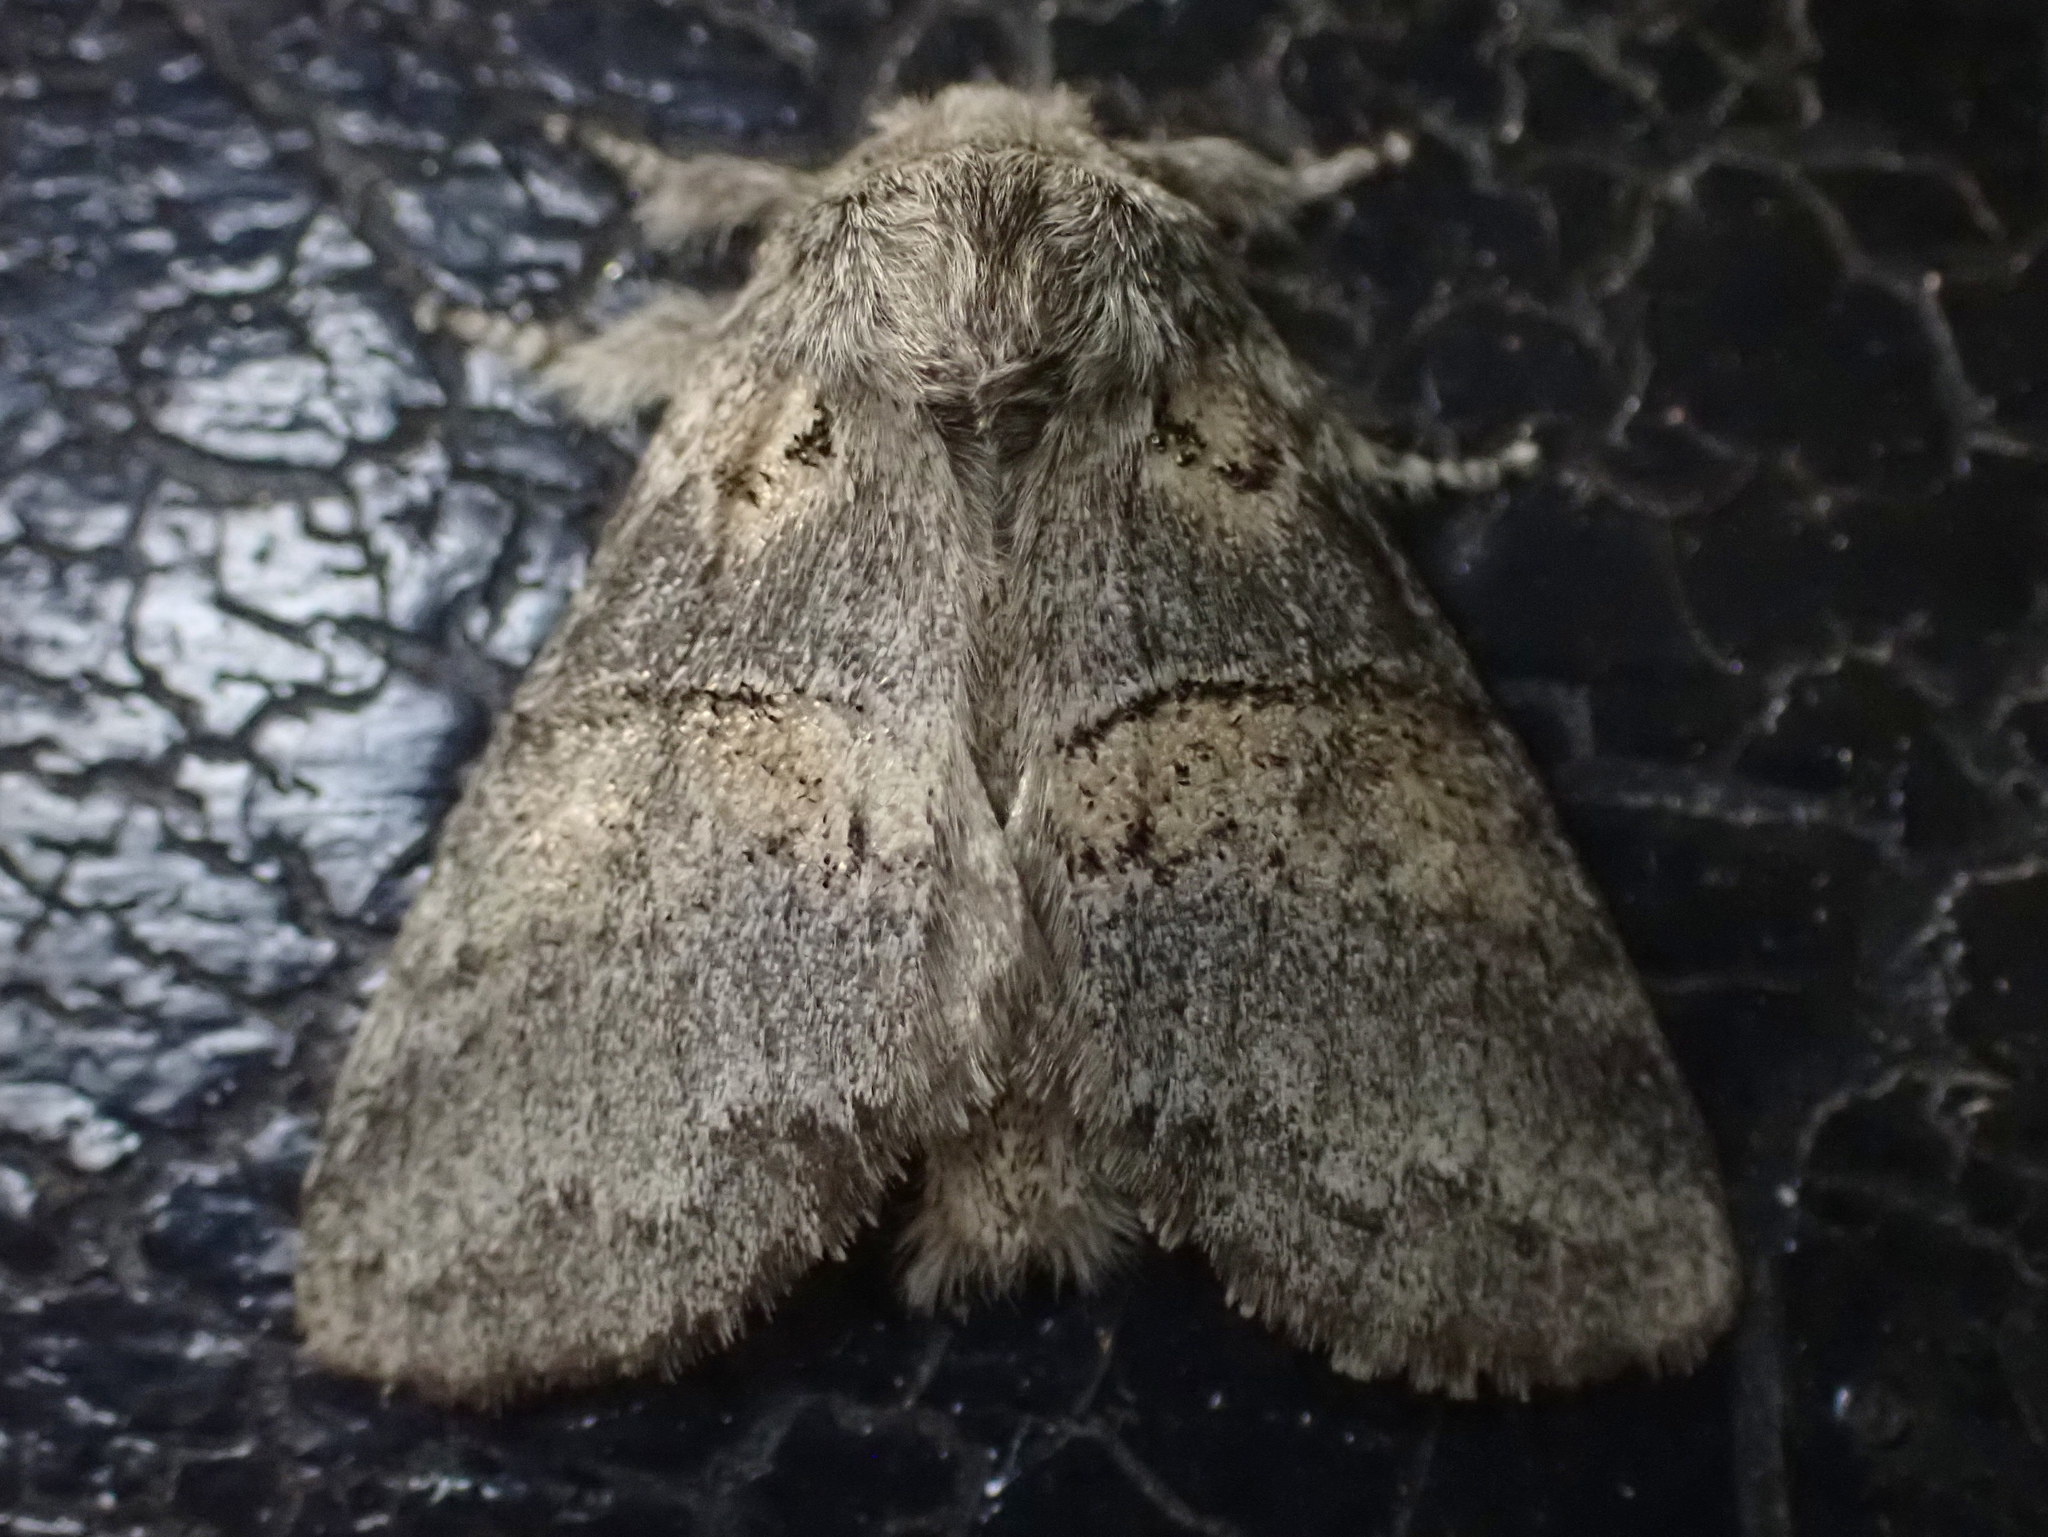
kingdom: Animalia
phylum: Arthropoda
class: Insecta
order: Lepidoptera
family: Notodontidae
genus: Gluphisia
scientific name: Gluphisia septentrionis
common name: Common gluphisia
